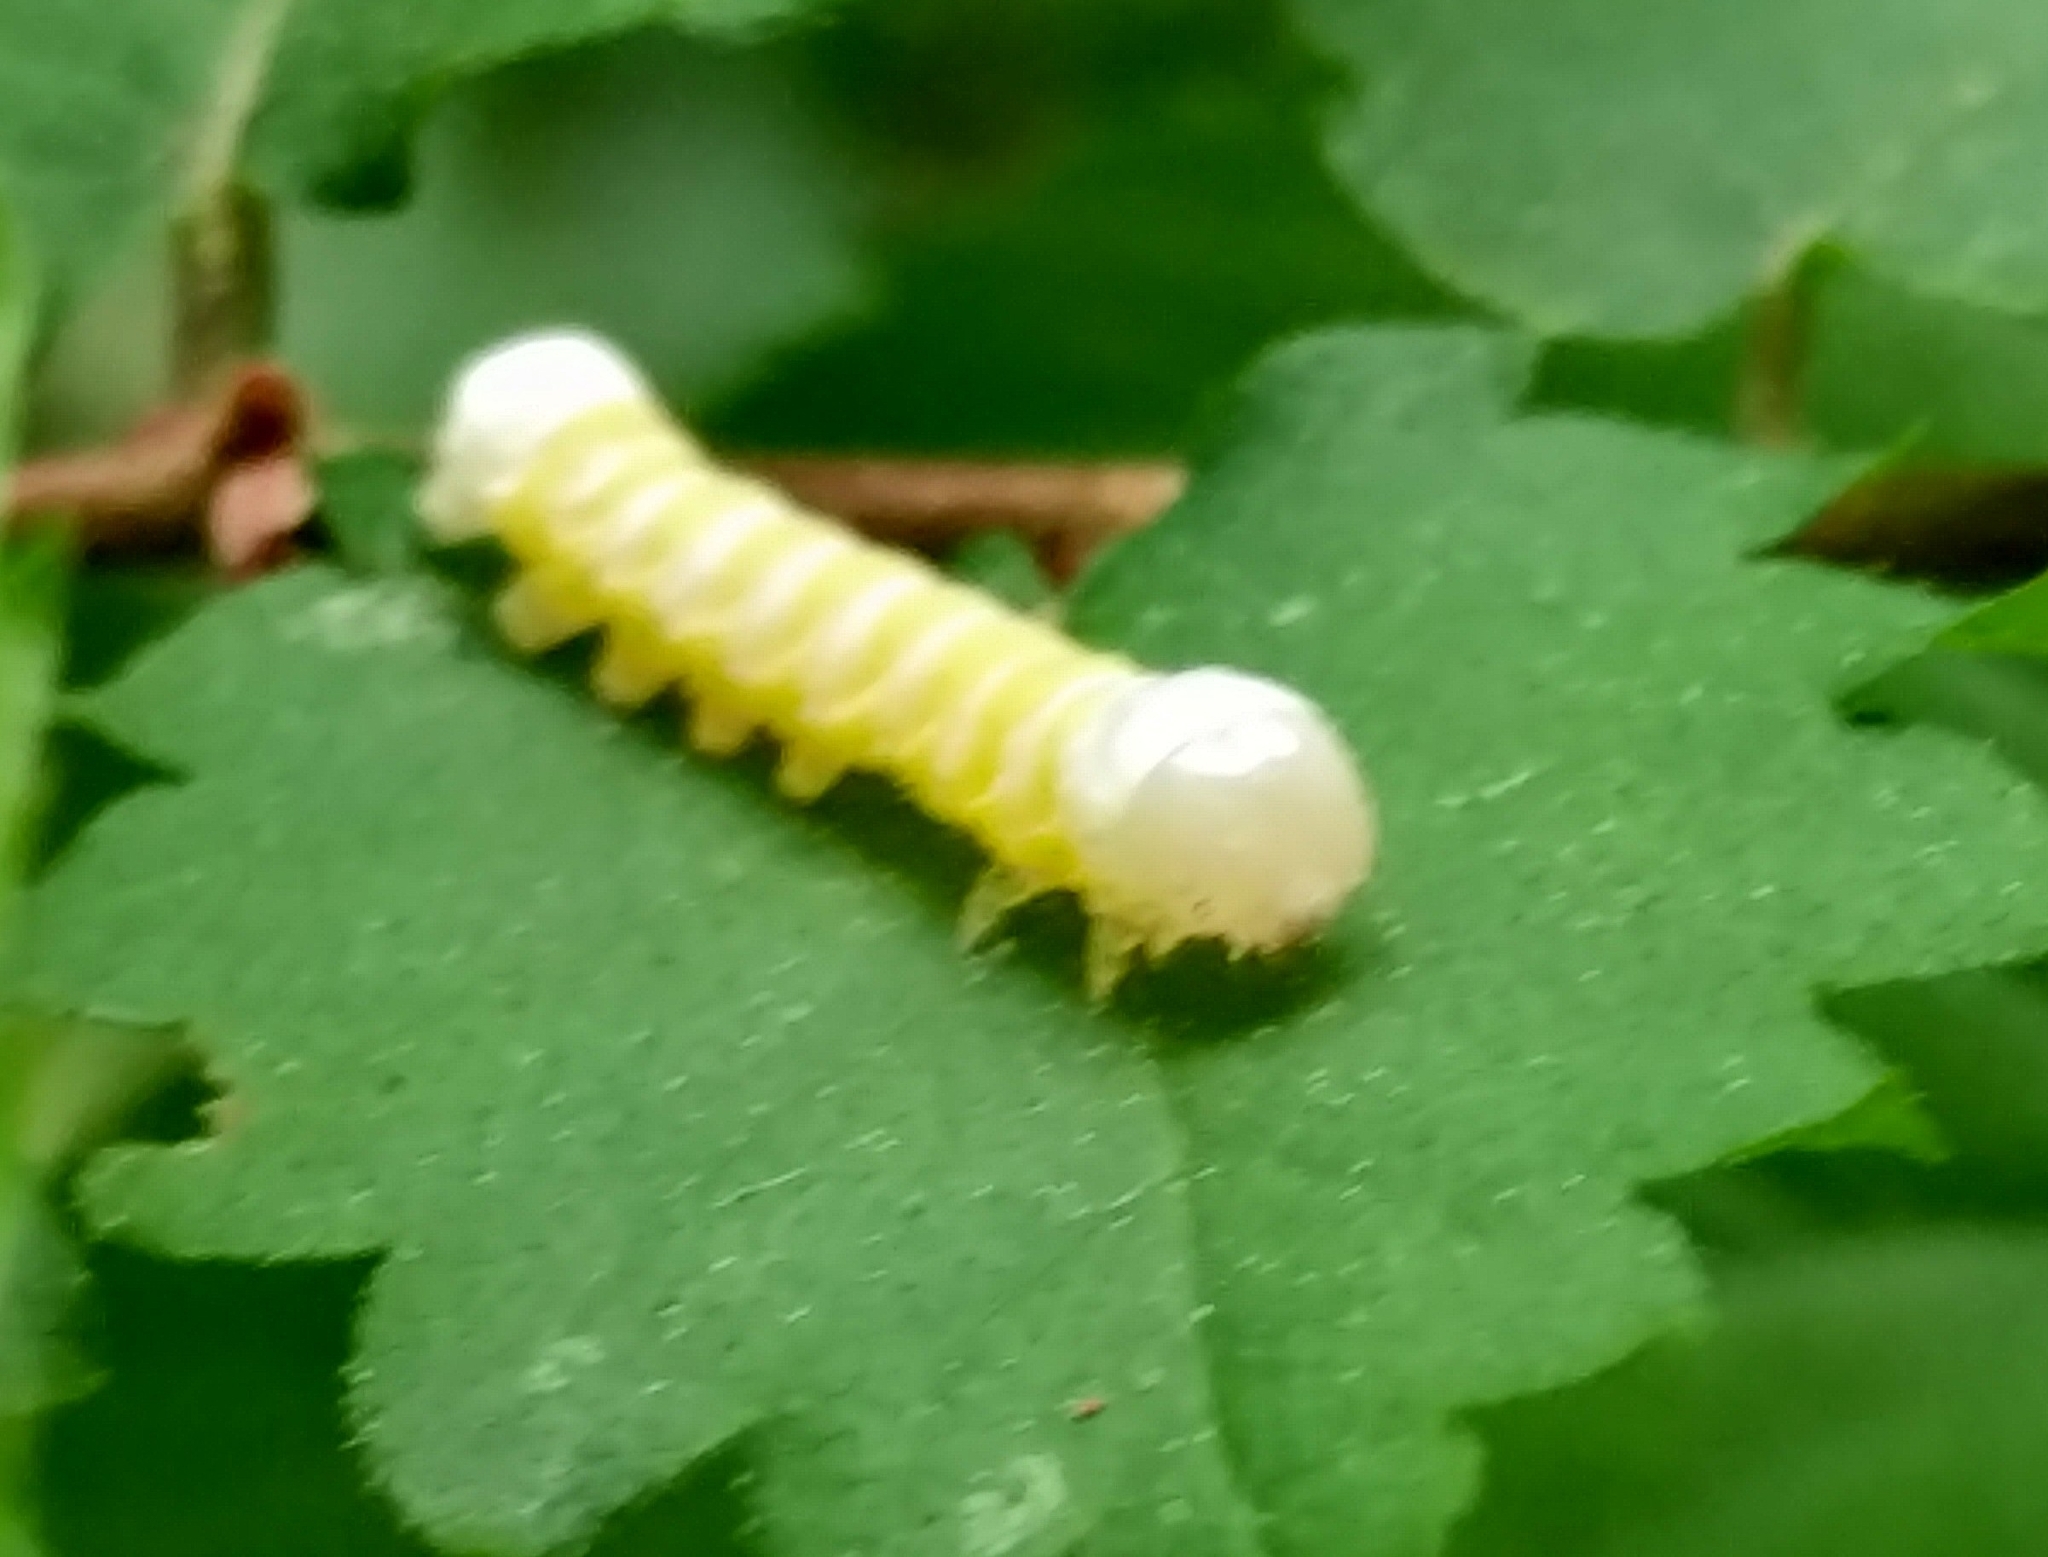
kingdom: Animalia
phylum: Arthropoda
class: Insecta
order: Lepidoptera
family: Noctuidae
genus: Pyreferra
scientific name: Pyreferra
